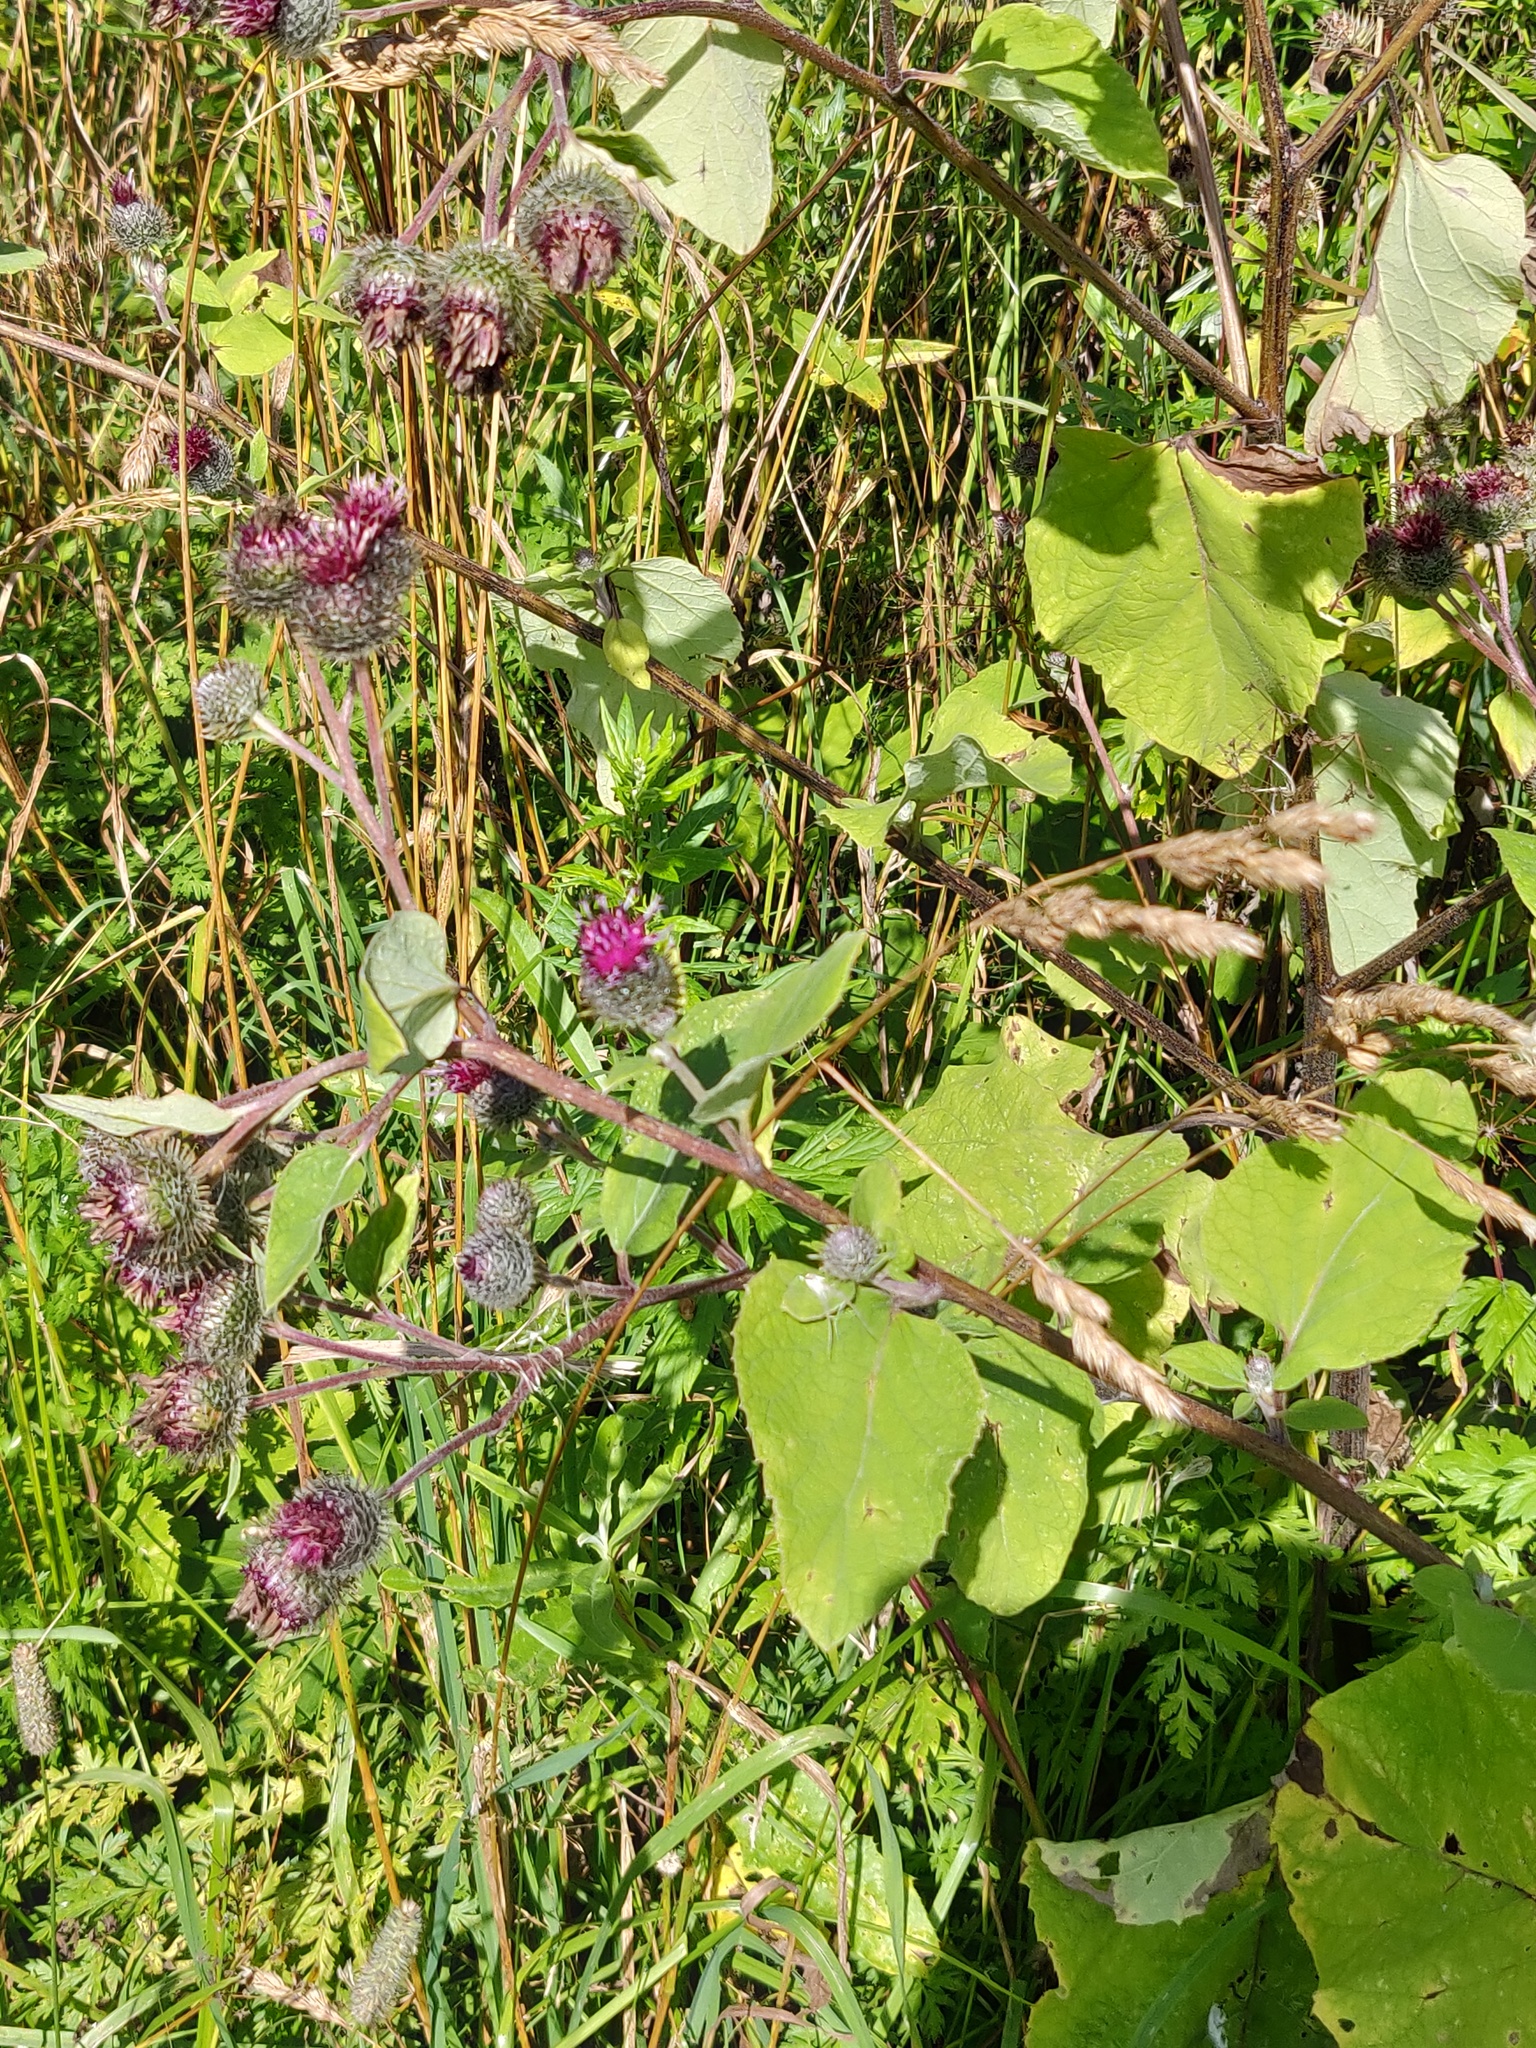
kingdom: Plantae
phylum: Tracheophyta
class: Magnoliopsida
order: Asterales
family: Asteraceae
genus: Arctium
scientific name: Arctium tomentosum
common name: Woolly burdock
